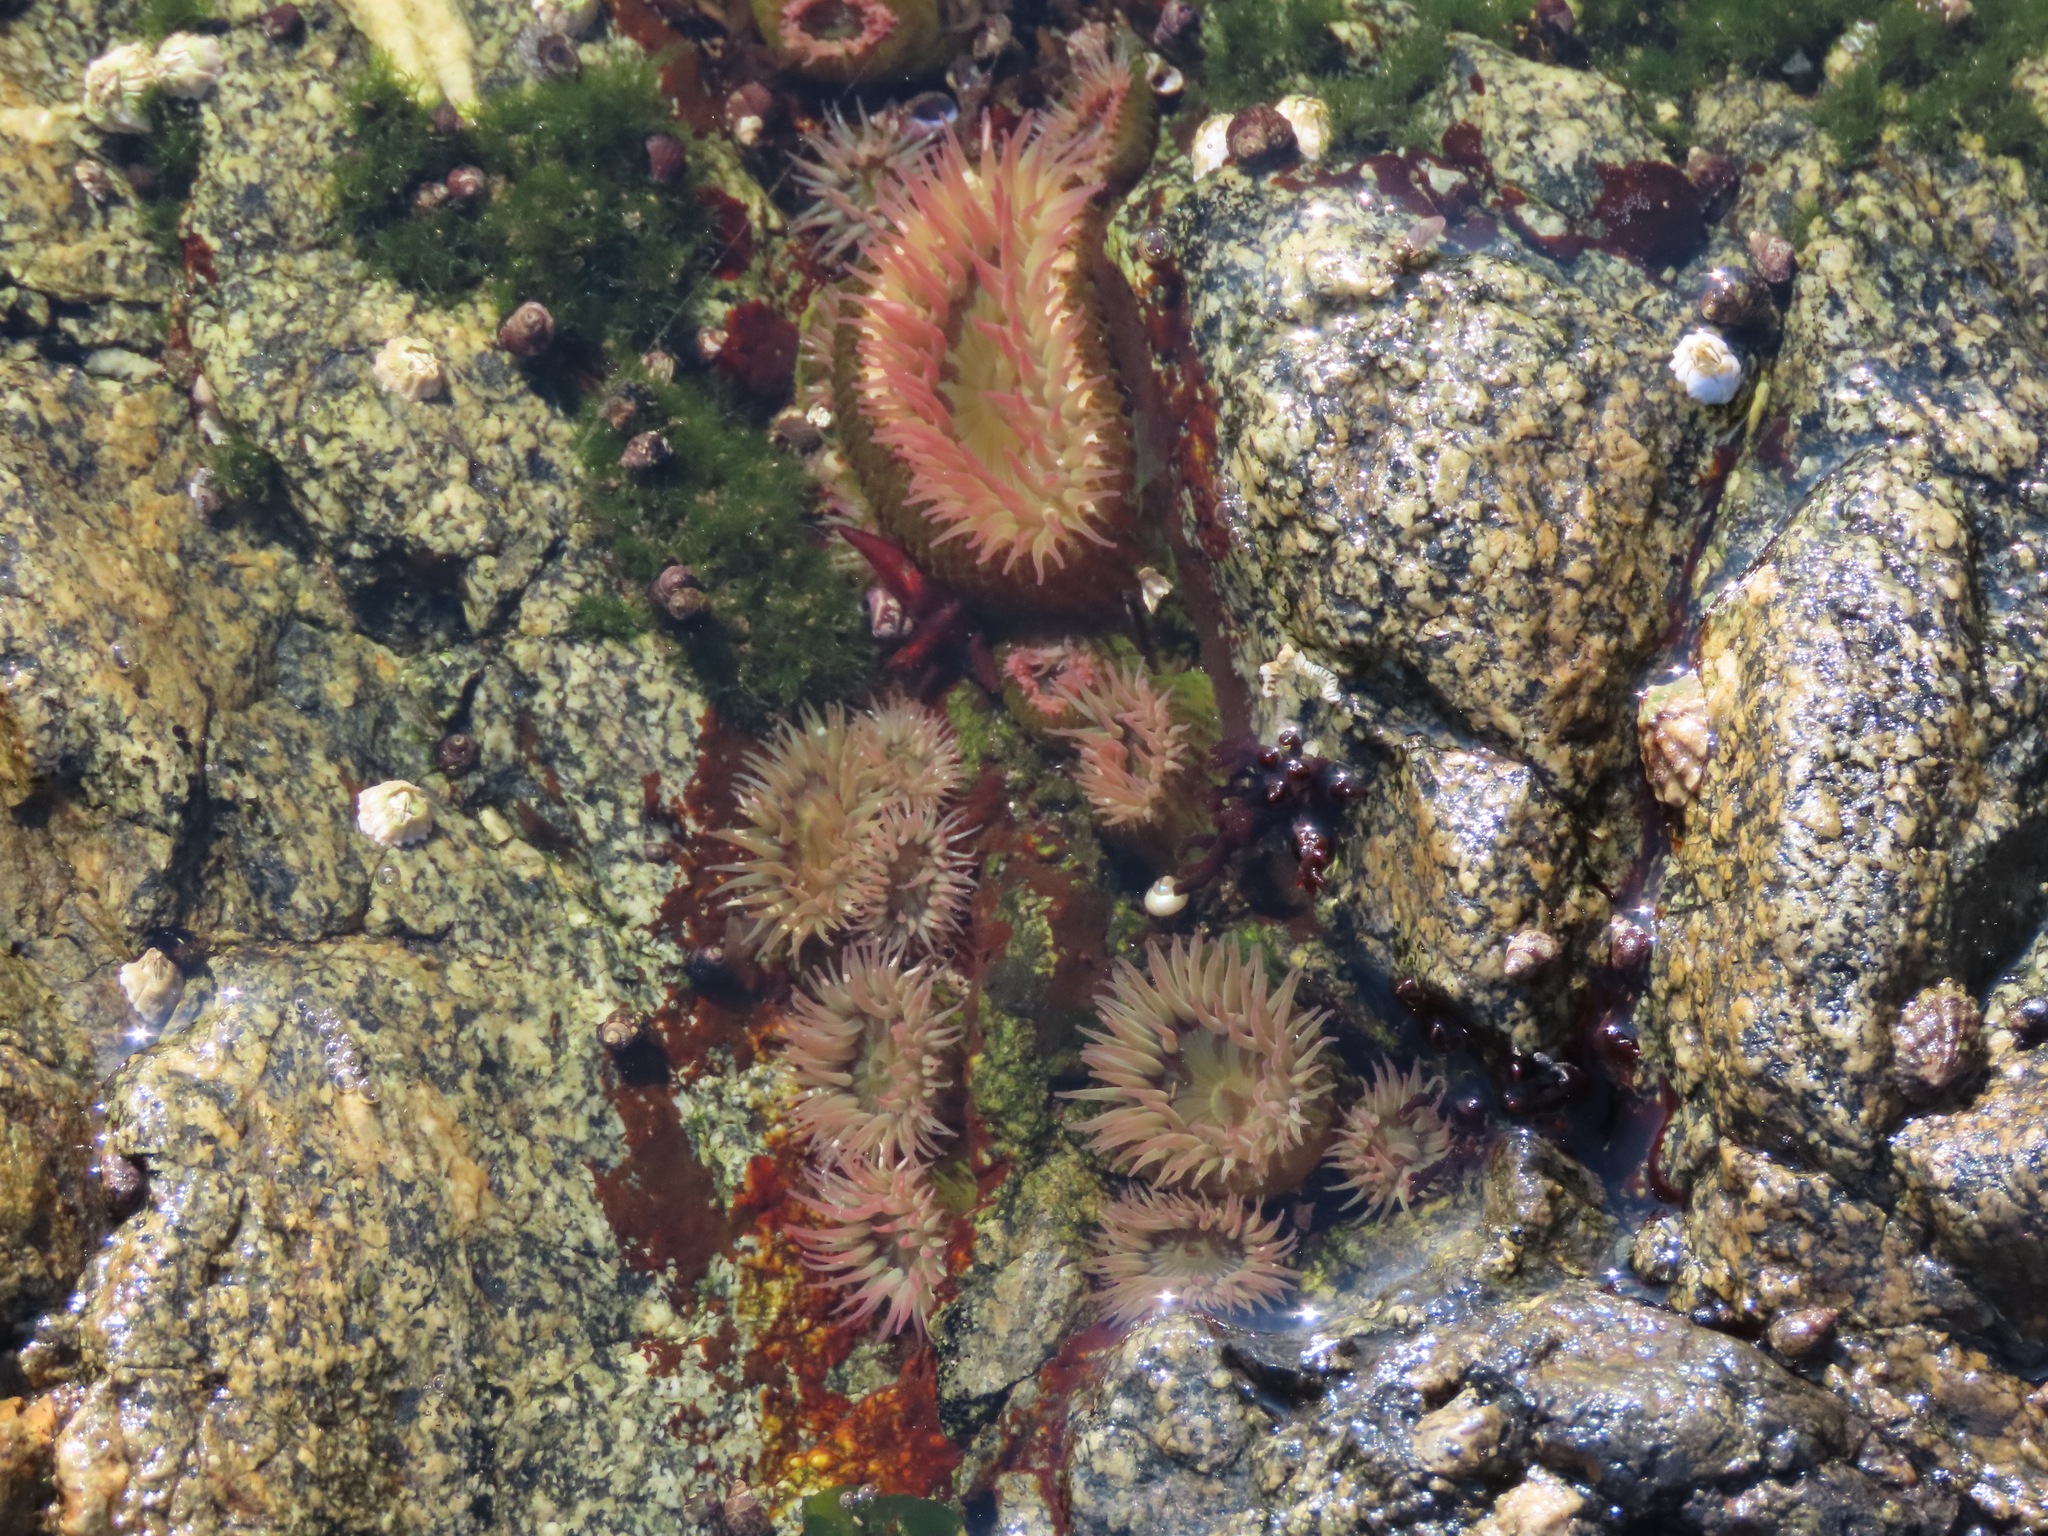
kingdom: Animalia
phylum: Cnidaria
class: Anthozoa
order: Actiniaria
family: Actiniidae
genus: Anthopleura
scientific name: Anthopleura elegantissima
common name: Clonal anemone
